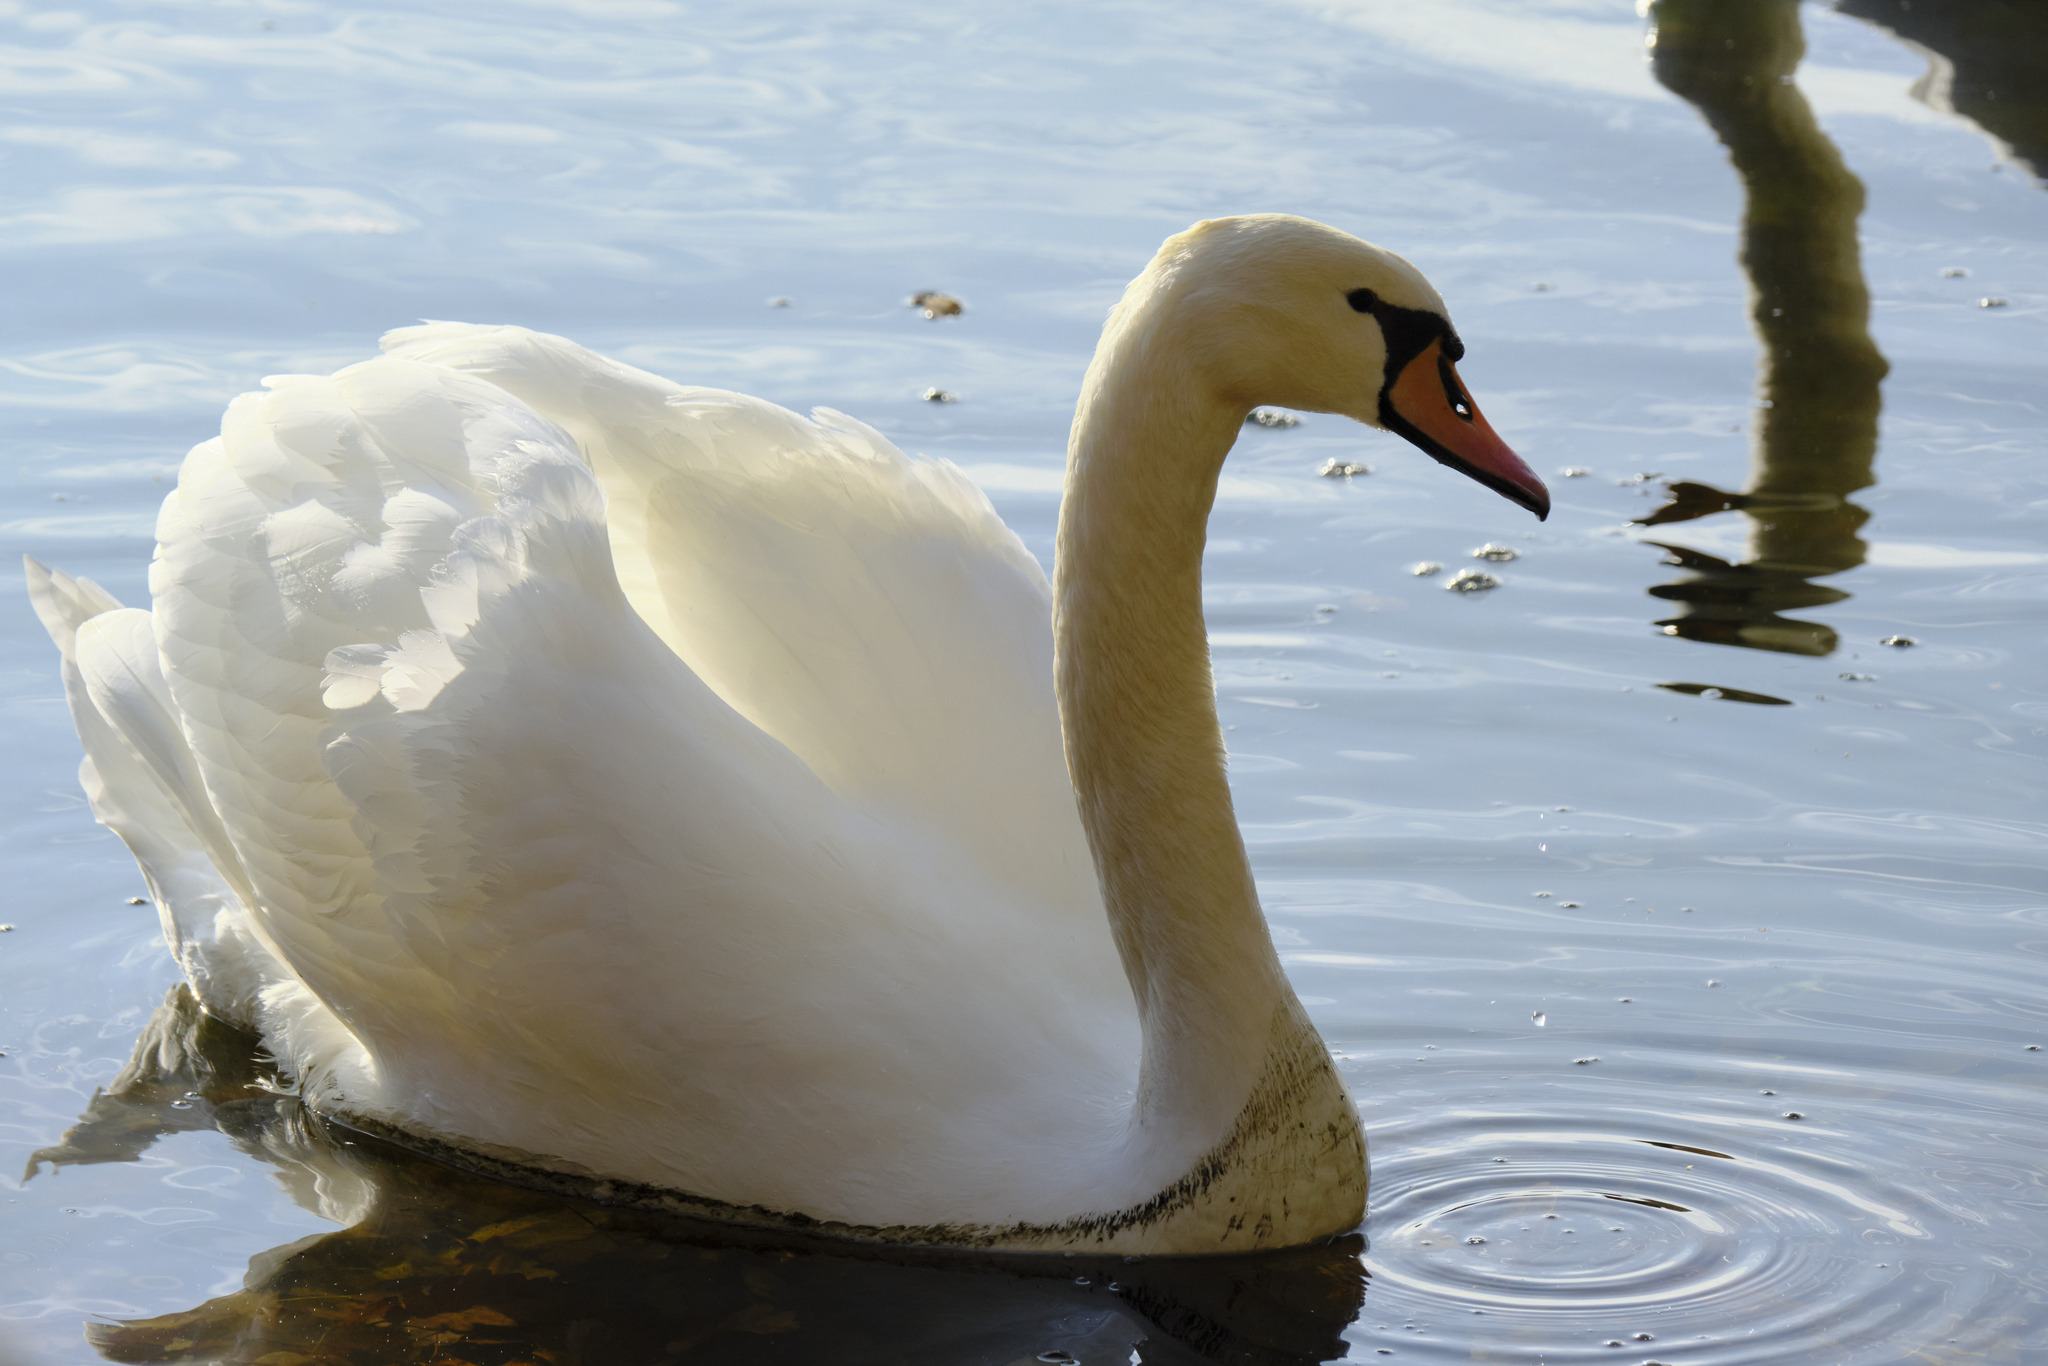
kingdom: Animalia
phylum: Chordata
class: Aves
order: Anseriformes
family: Anatidae
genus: Cygnus
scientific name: Cygnus olor
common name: Mute swan
